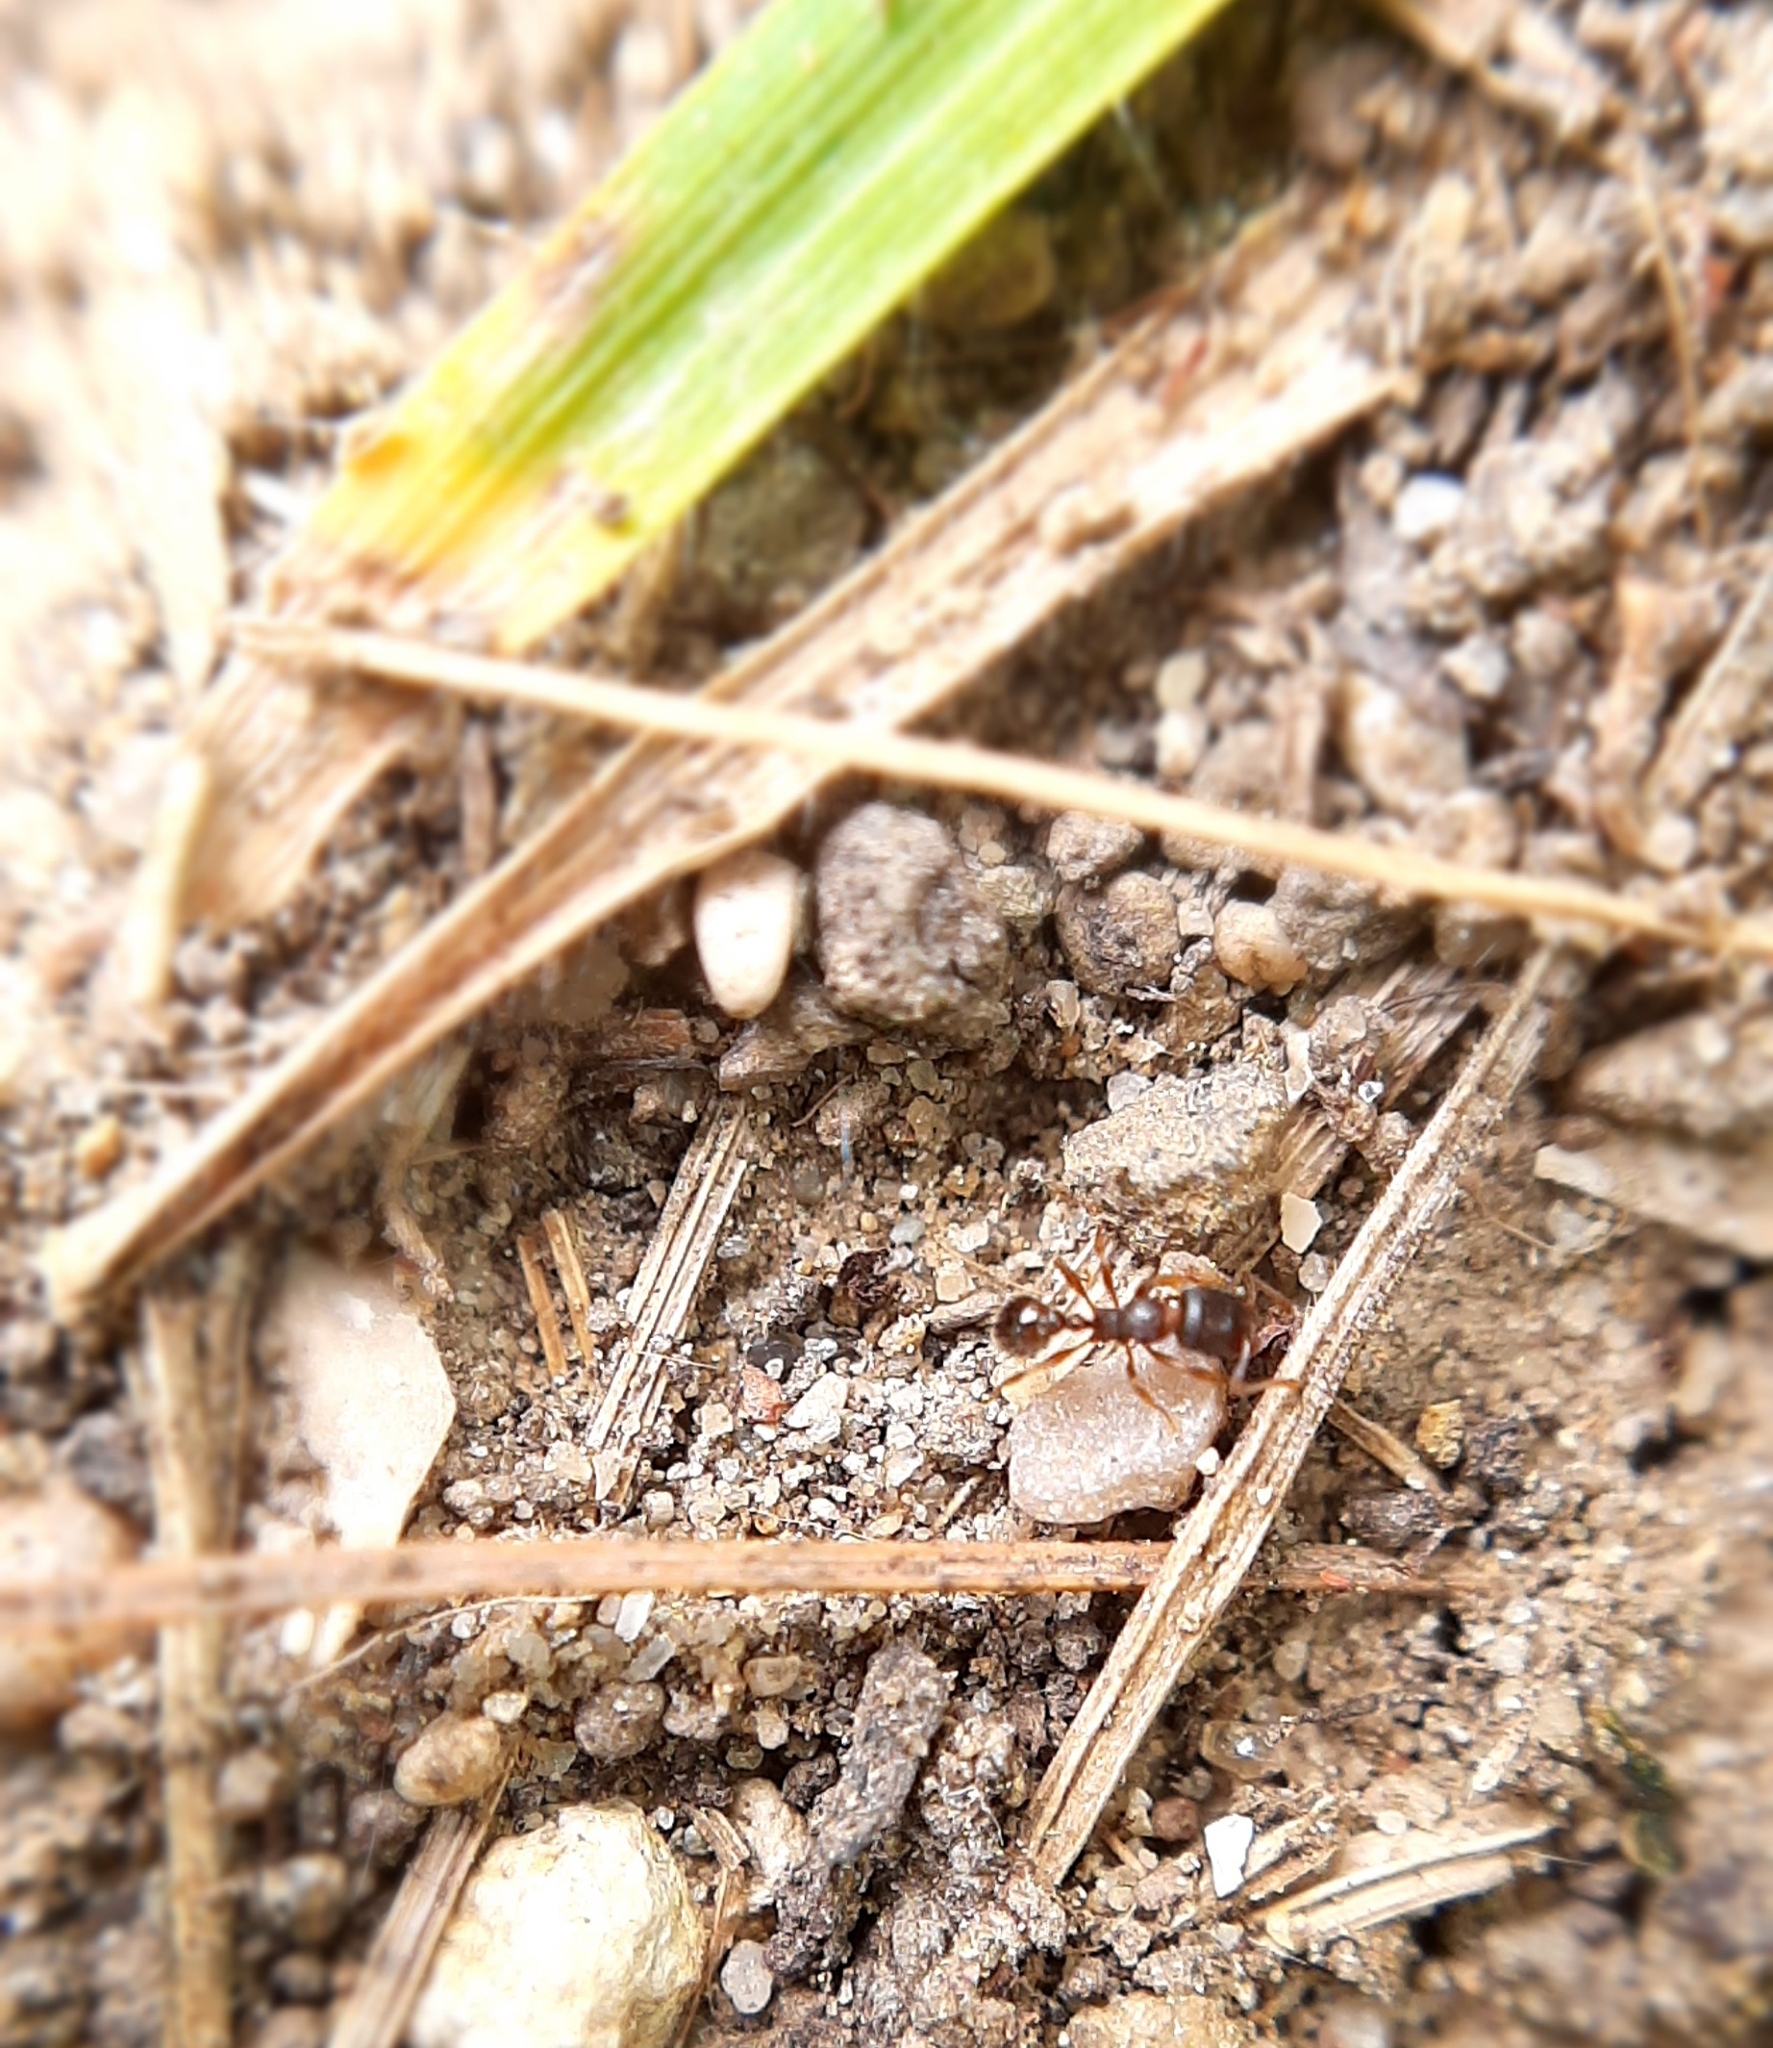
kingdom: Animalia
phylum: Arthropoda
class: Insecta
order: Hymenoptera
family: Formicidae
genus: Tetramorium
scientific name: Tetramorium
